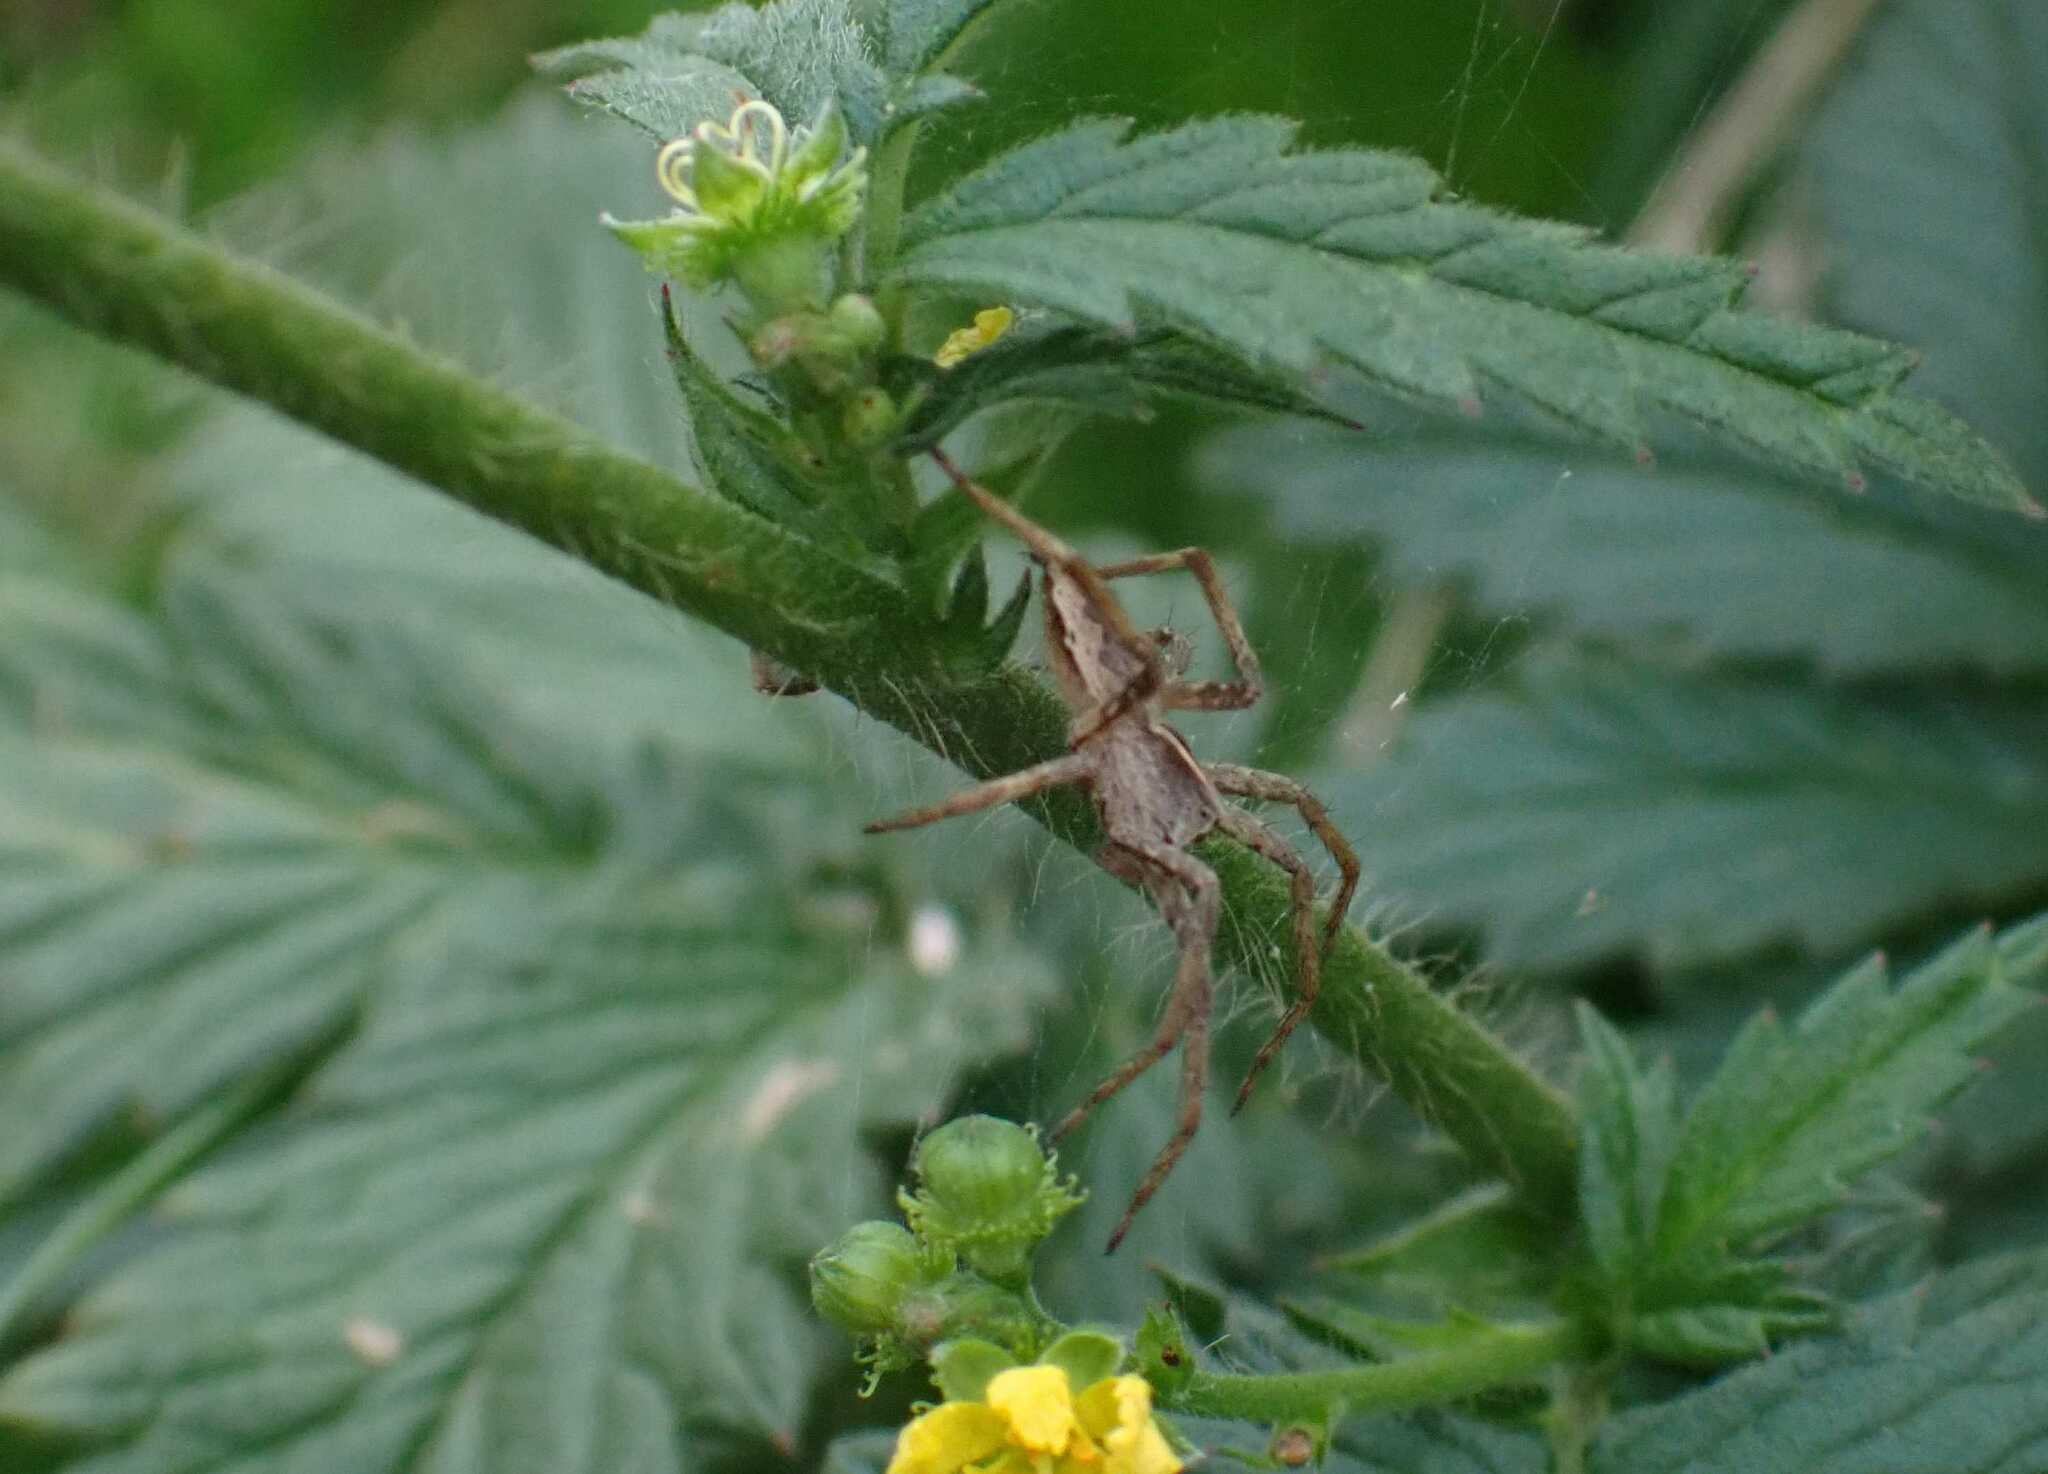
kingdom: Animalia
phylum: Arthropoda
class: Arachnida
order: Araneae
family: Pisauridae
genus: Pisaura
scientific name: Pisaura mirabilis
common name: Tent spider
